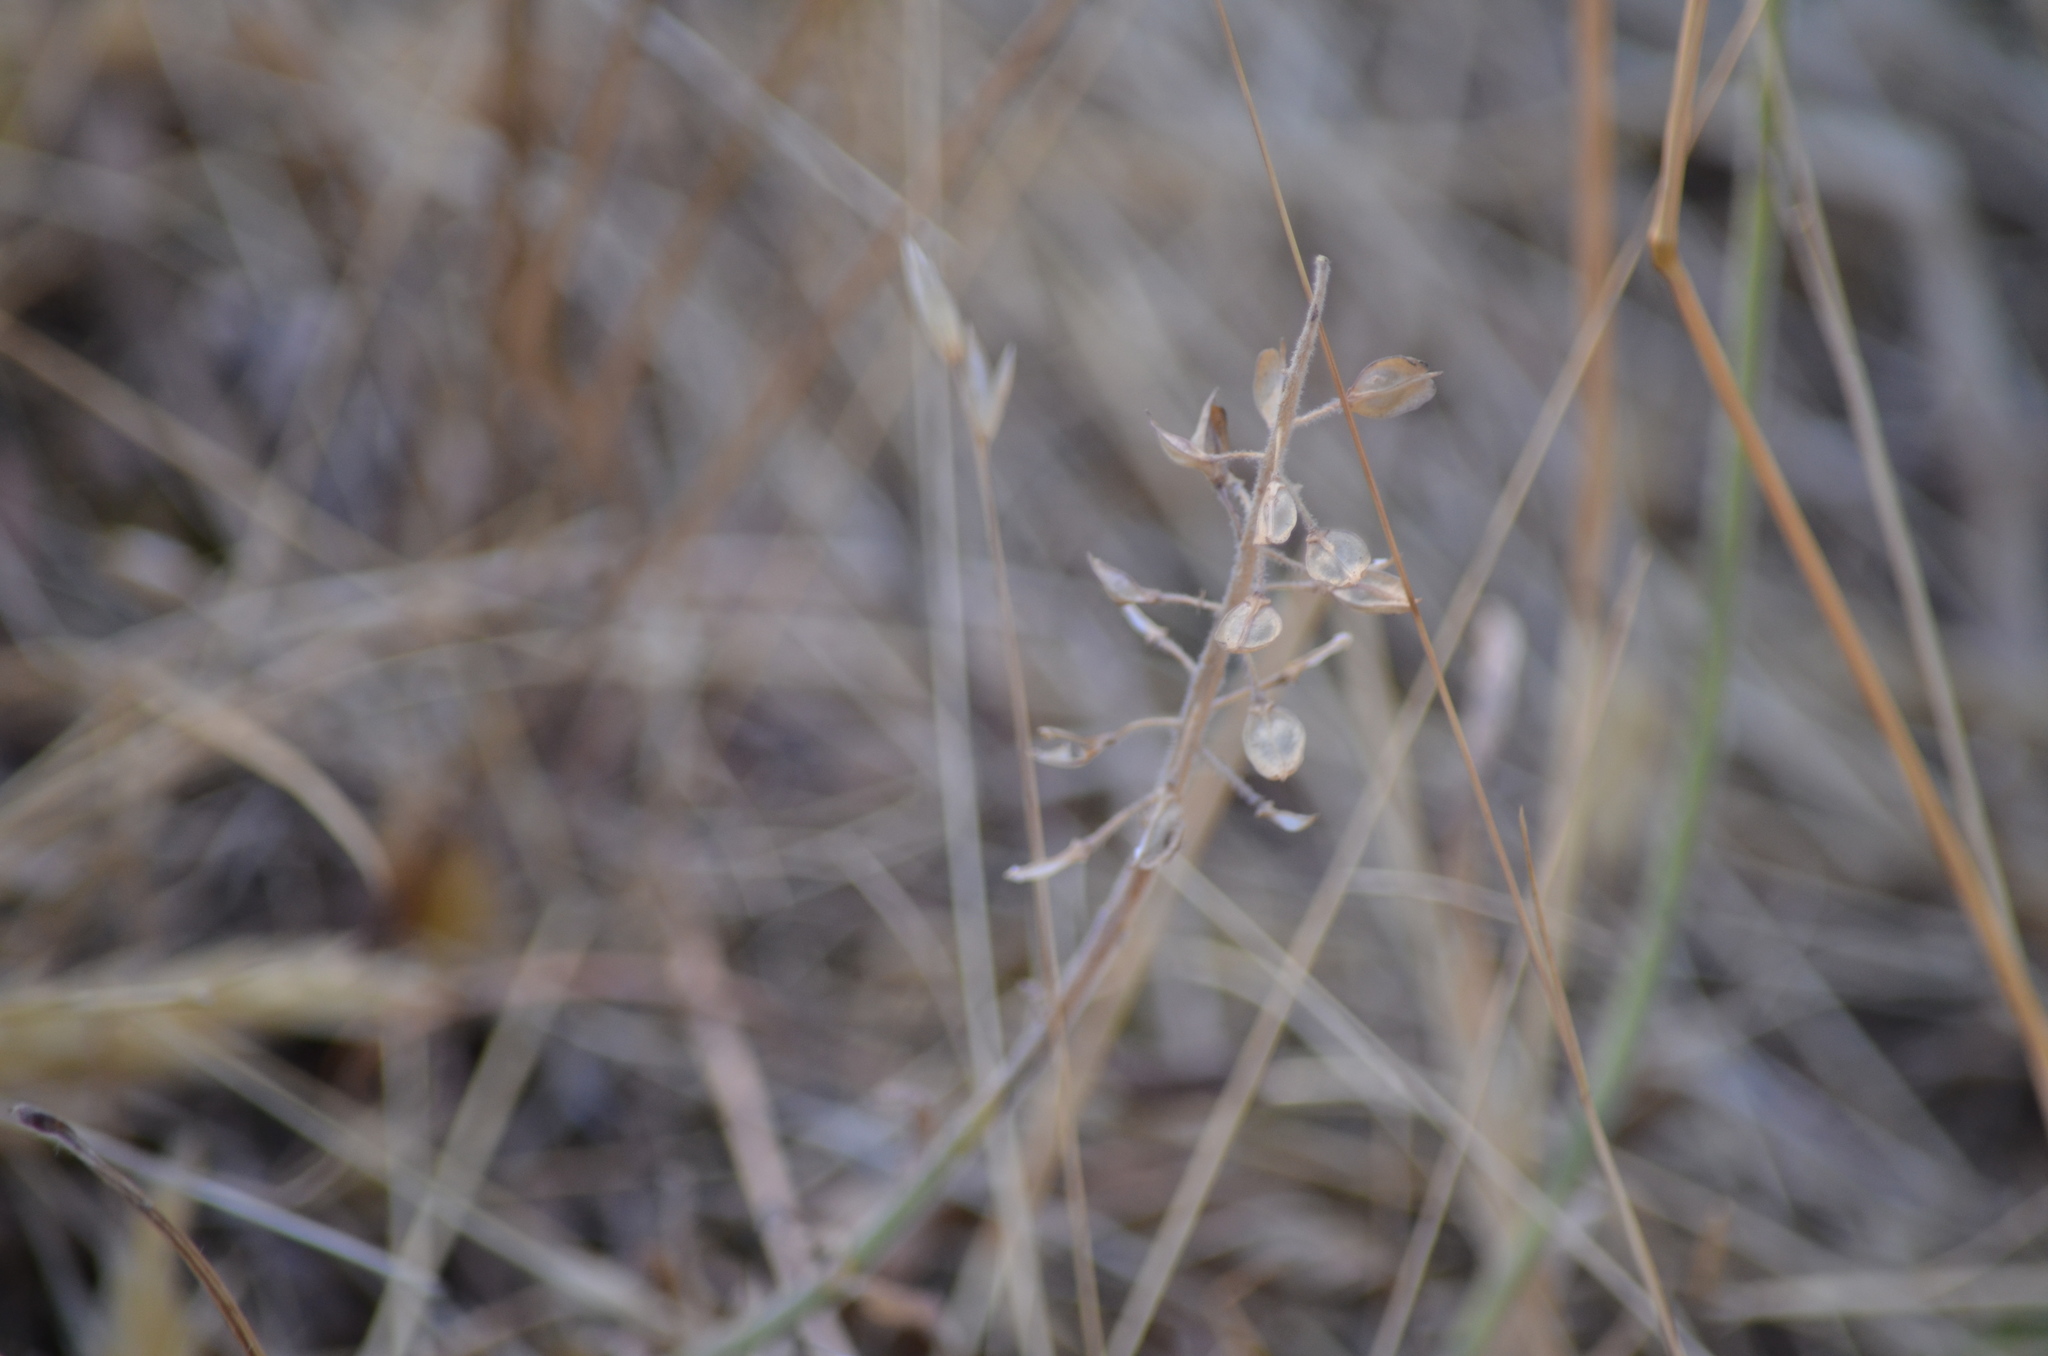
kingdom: Plantae
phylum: Tracheophyta
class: Magnoliopsida
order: Brassicales
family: Brassicaceae
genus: Lepidium
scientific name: Lepidium heterophyllum
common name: Smith's pepperwort
